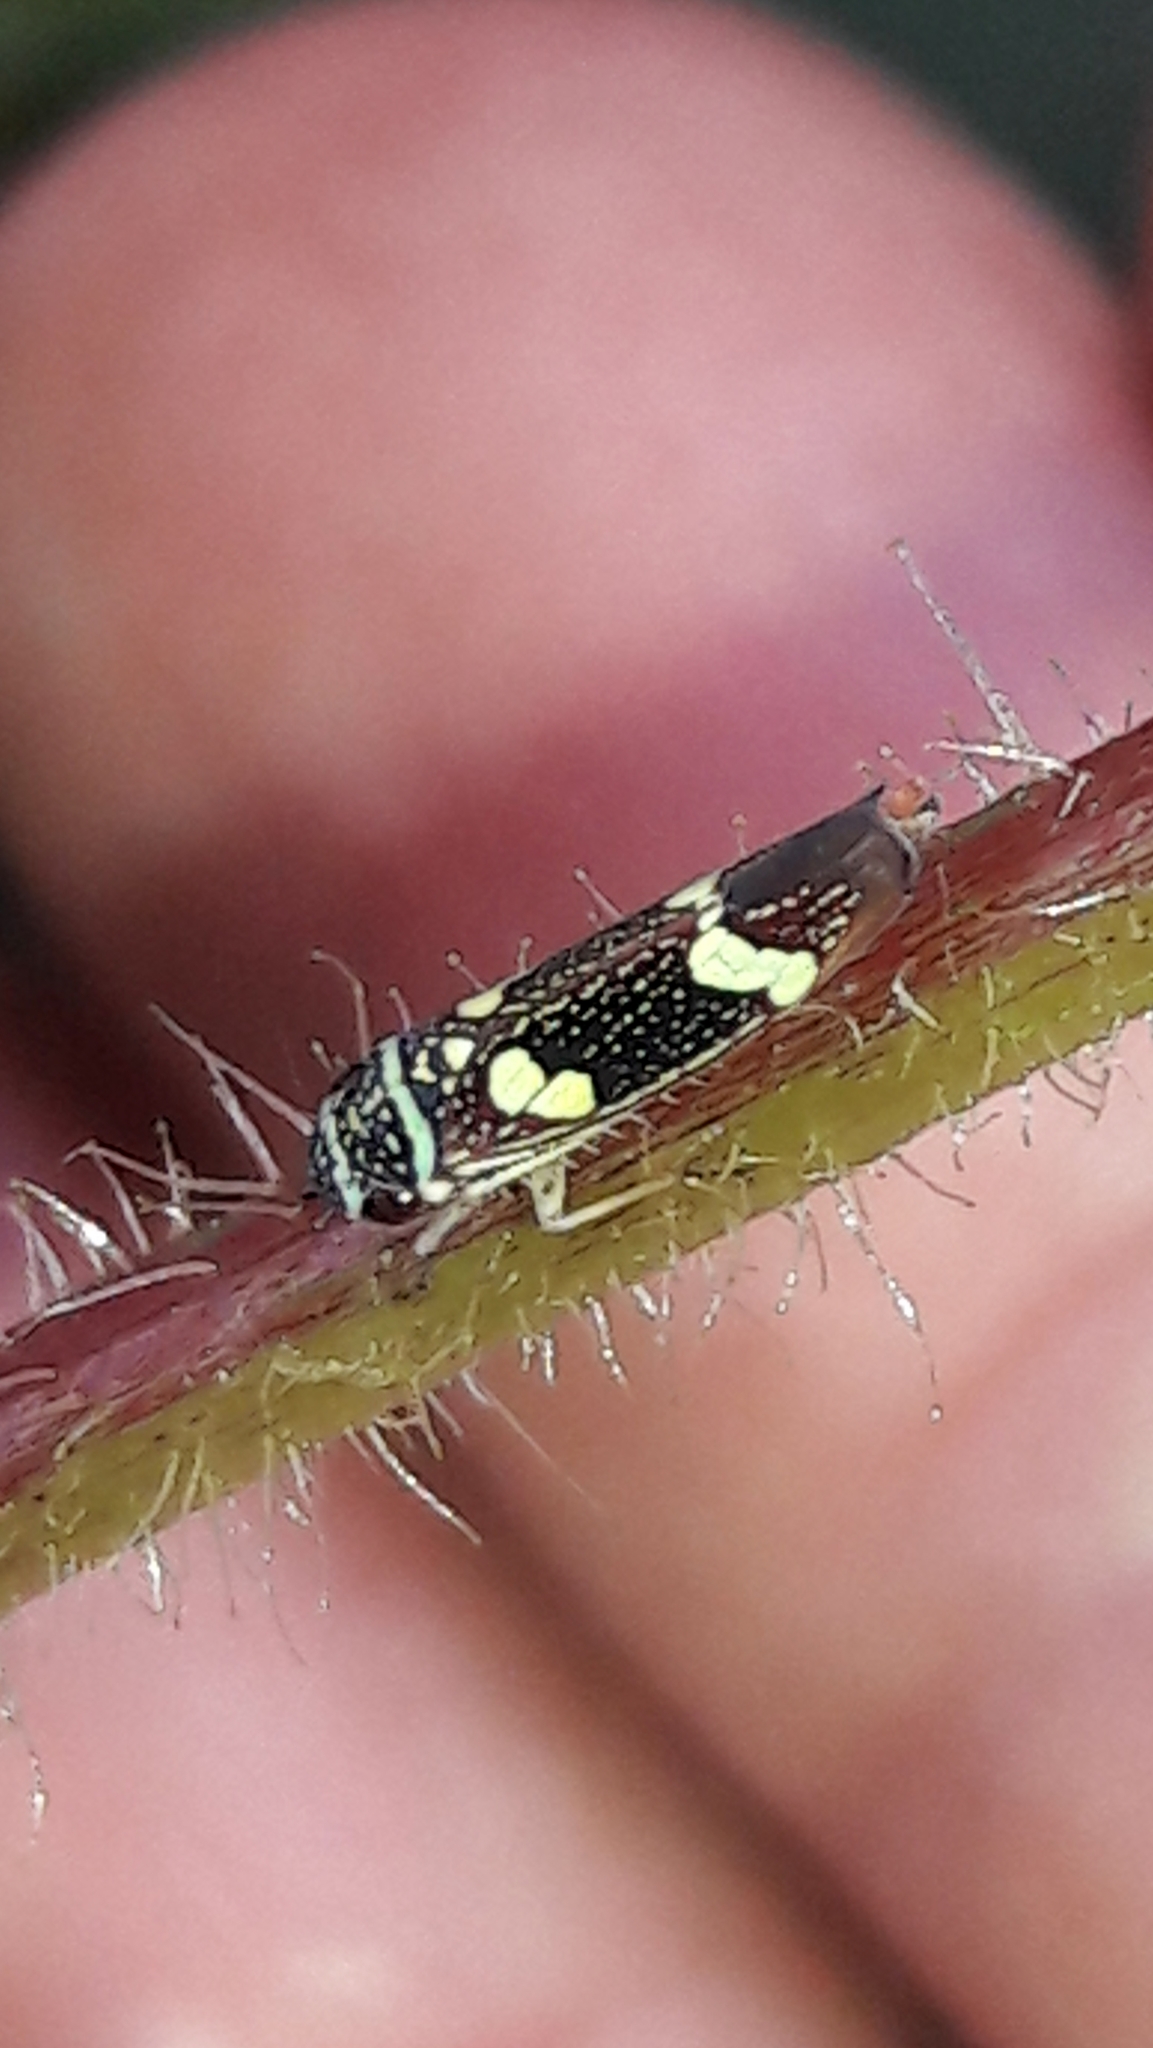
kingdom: Animalia
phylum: Arthropoda
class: Insecta
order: Hemiptera
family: Cicadellidae
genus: Macugonalia
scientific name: Macugonalia leucomelas
